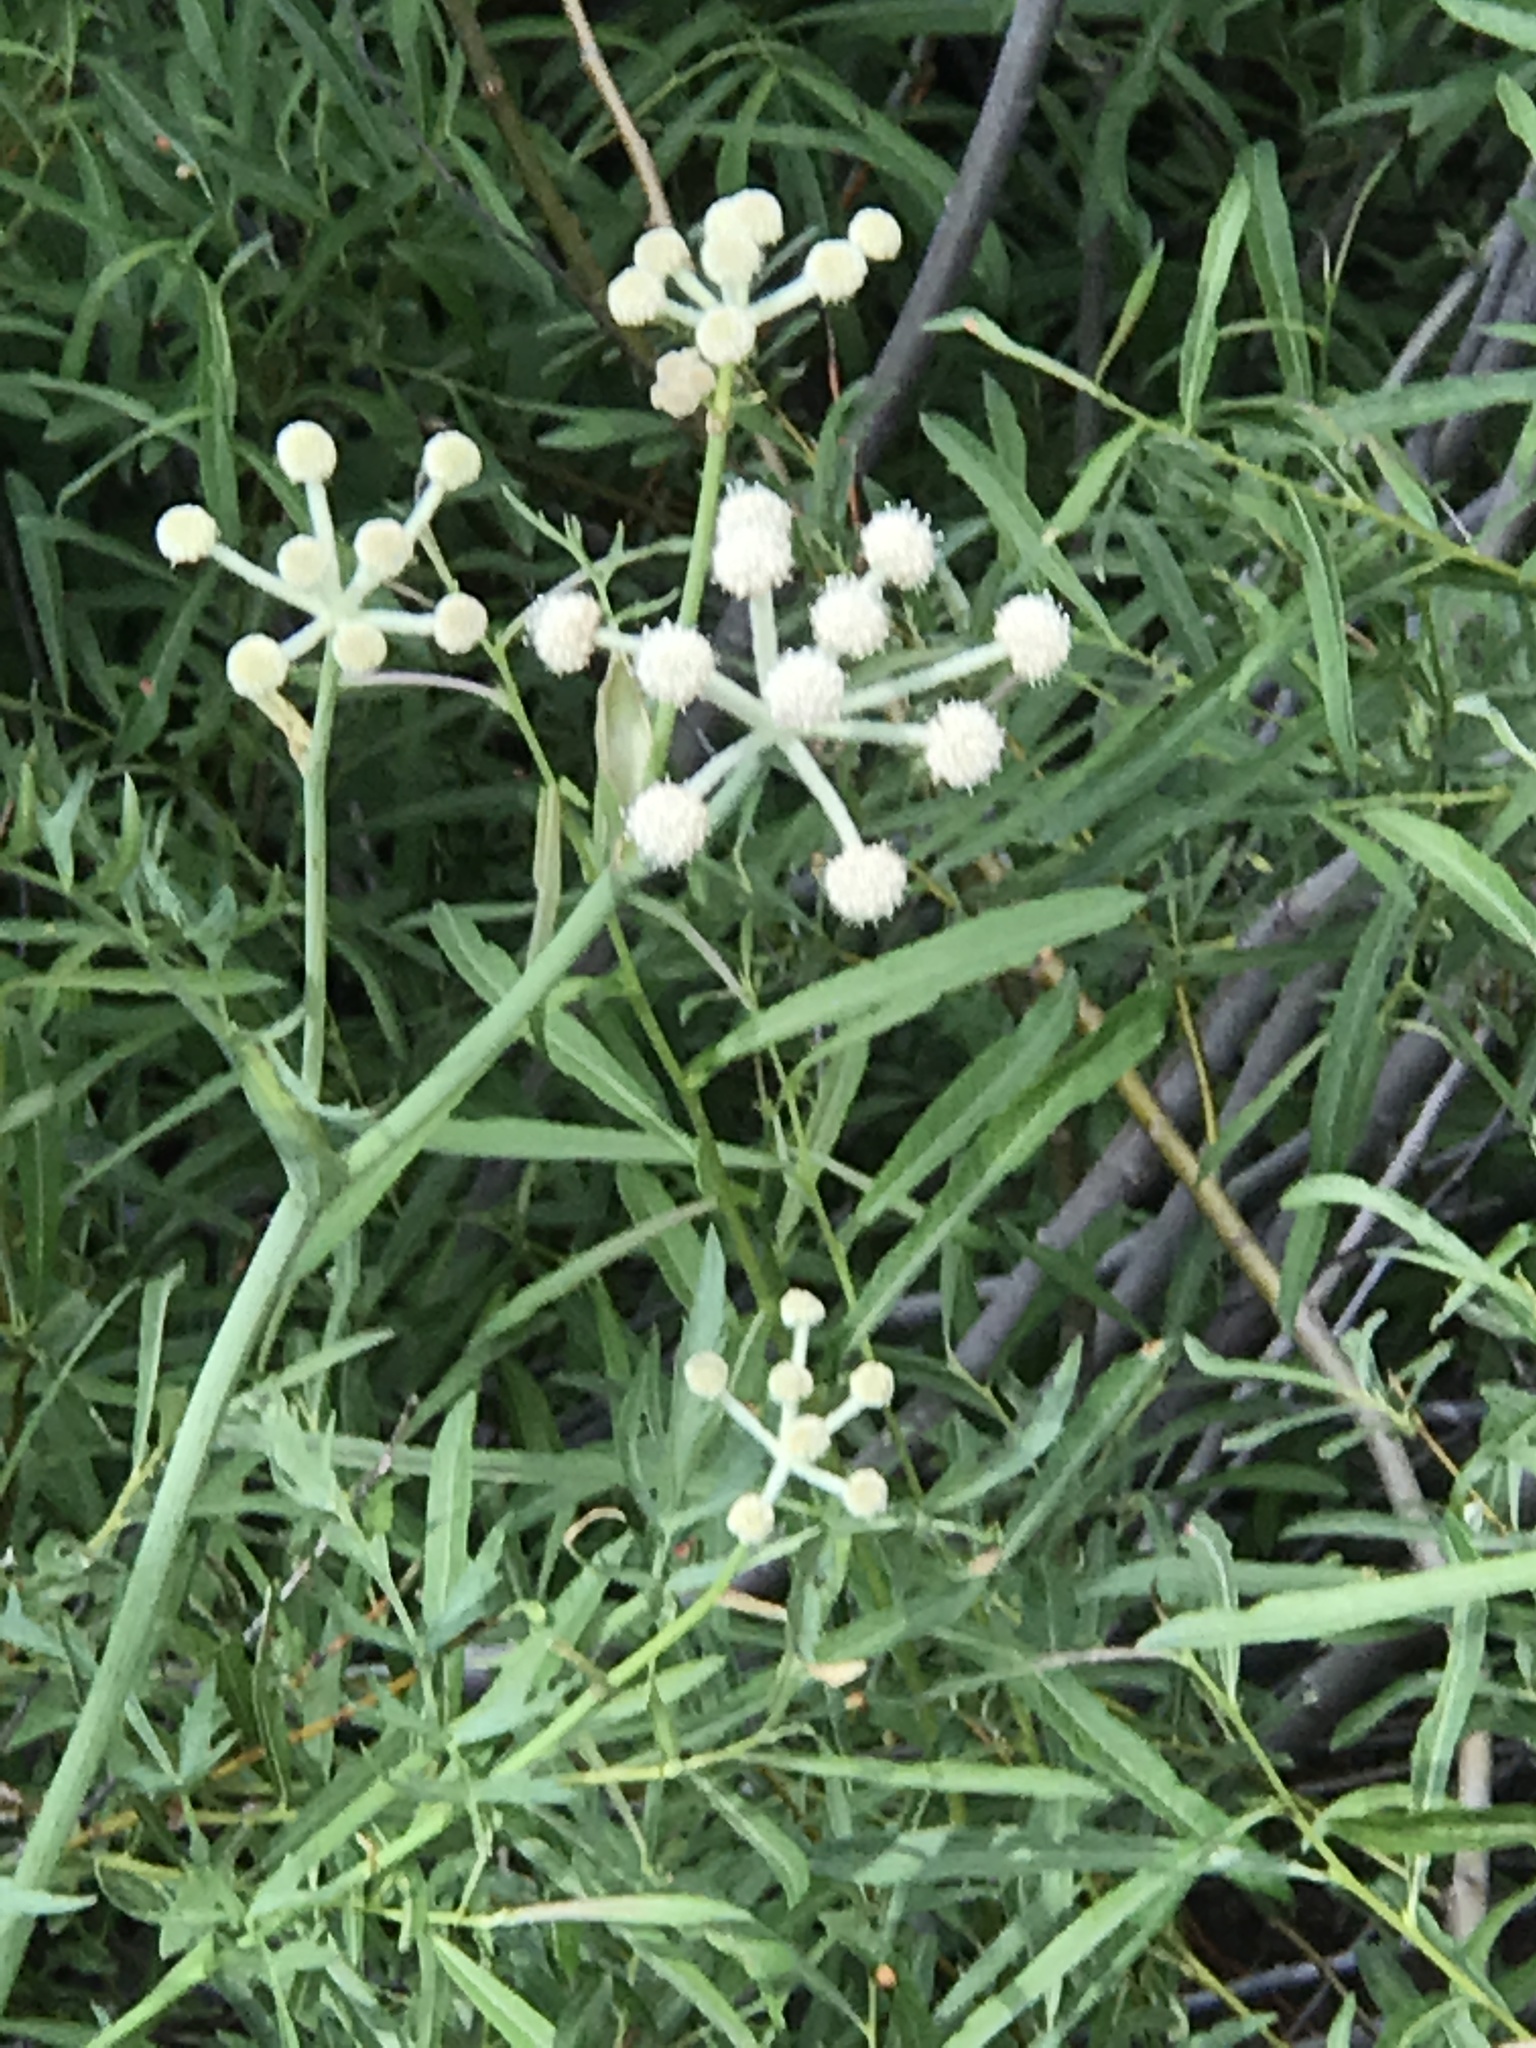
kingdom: Plantae
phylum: Tracheophyta
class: Magnoliopsida
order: Apiales
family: Apiaceae
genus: Angelica
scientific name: Angelica capitellata
